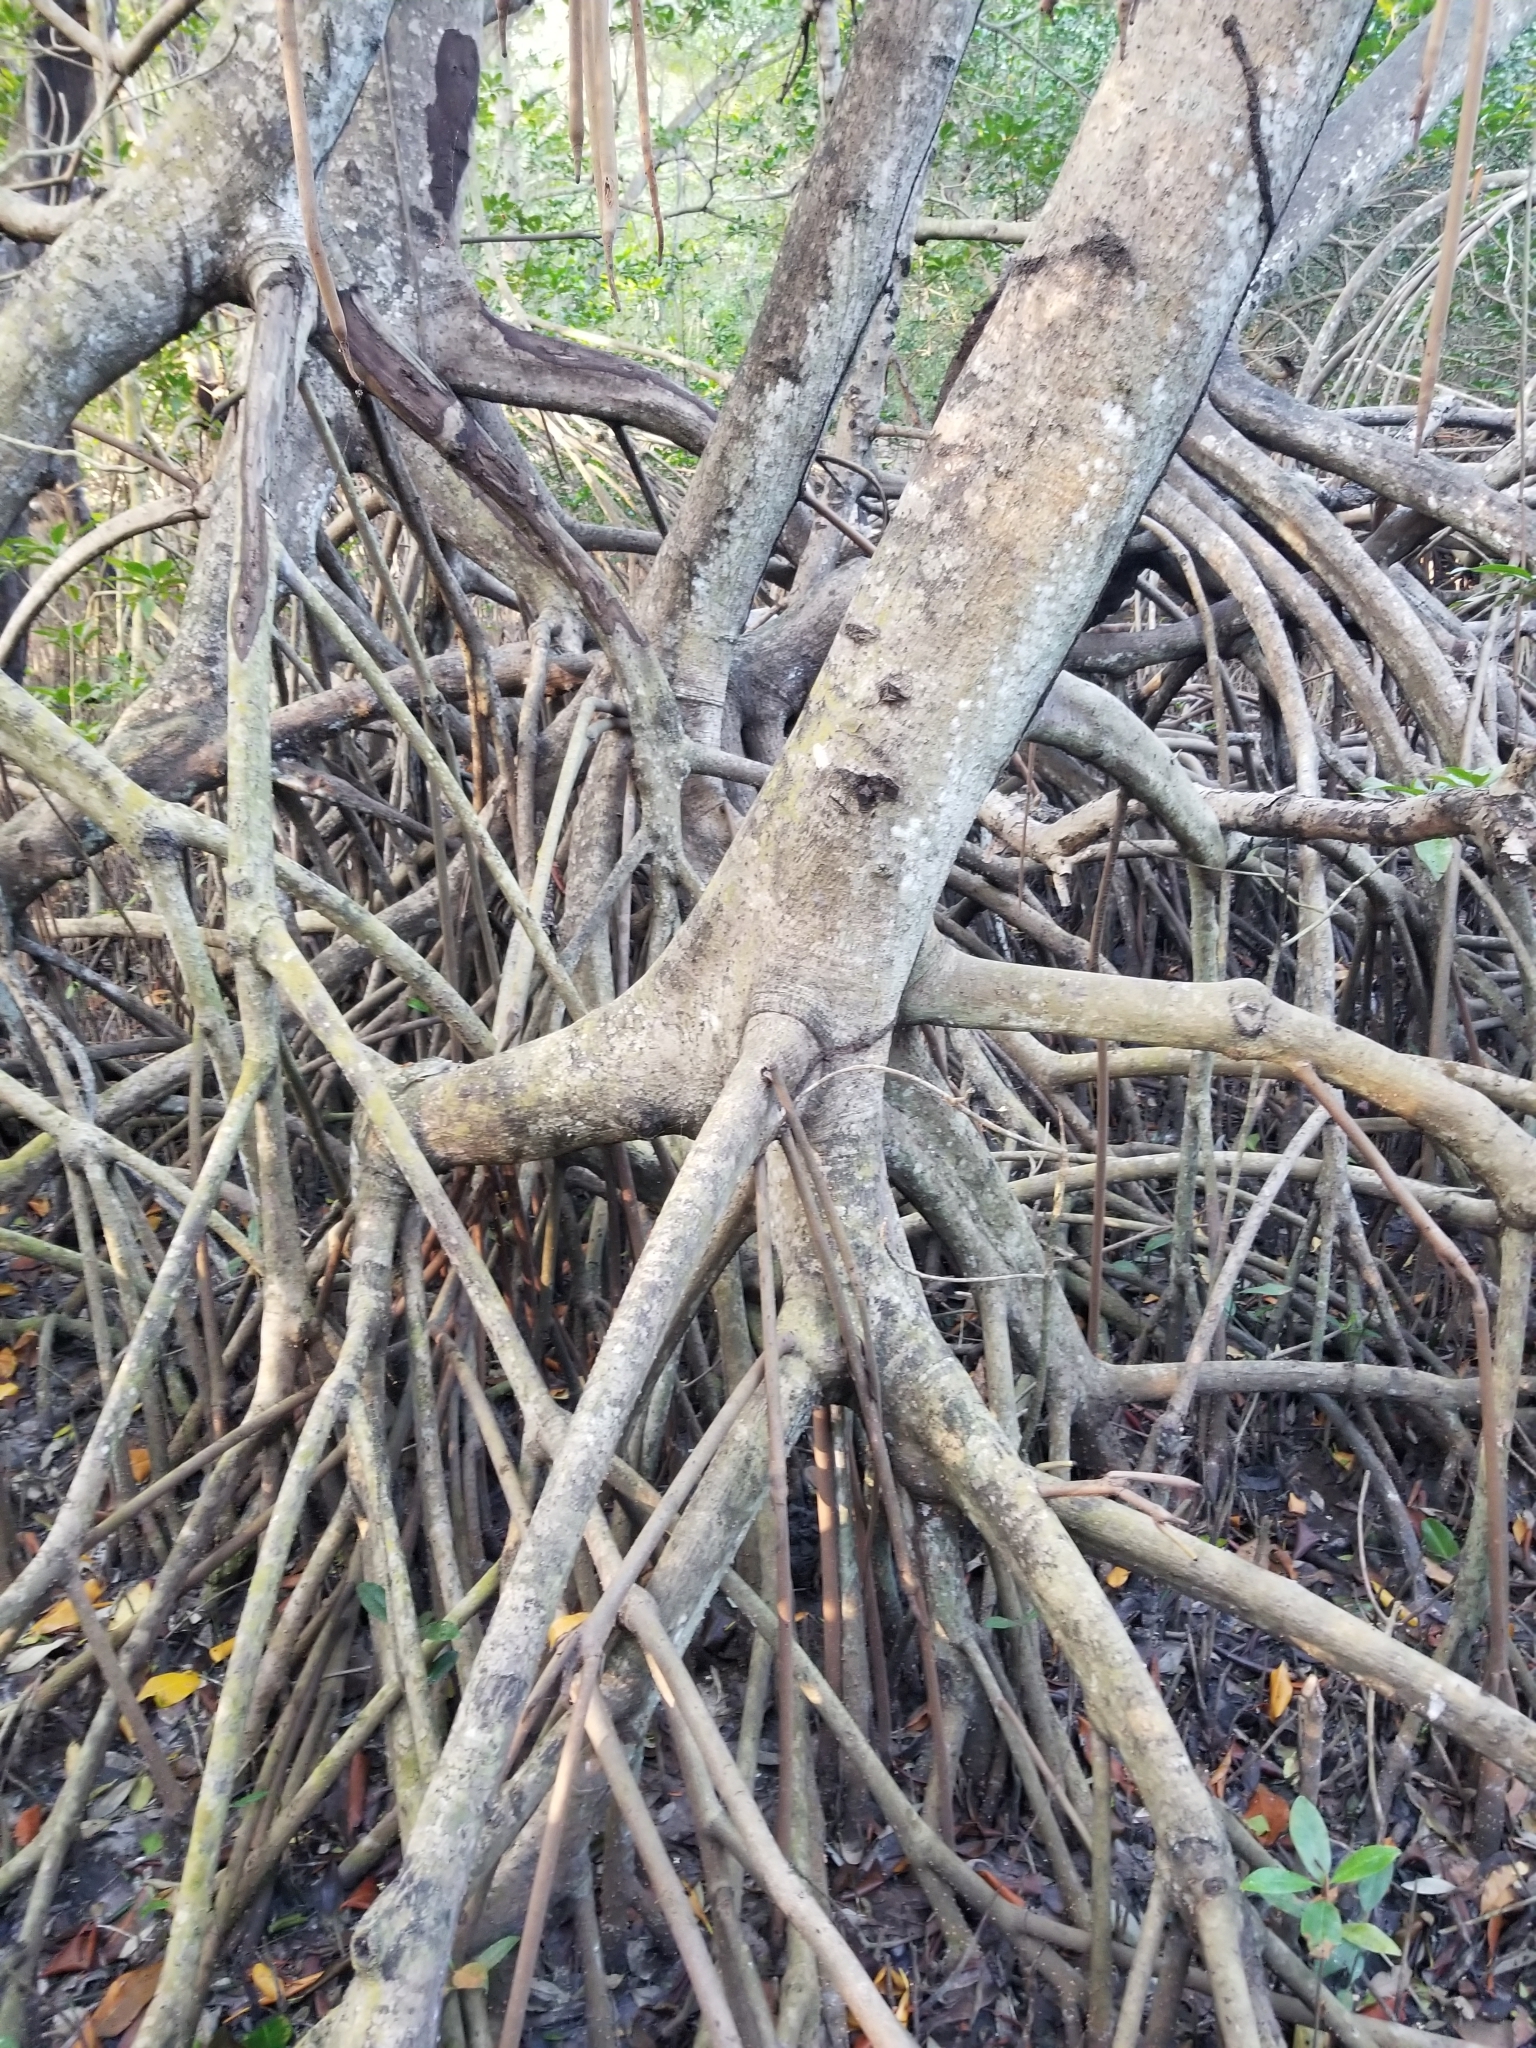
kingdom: Plantae
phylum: Tracheophyta
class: Magnoliopsida
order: Malpighiales
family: Rhizophoraceae
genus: Rhizophora
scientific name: Rhizophora mangle
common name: Red mangrove
